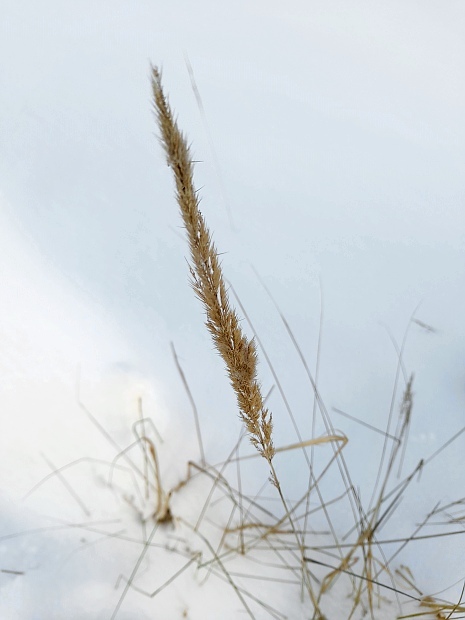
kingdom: Plantae
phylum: Tracheophyta
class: Liliopsida
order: Poales
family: Poaceae
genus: Calamagrostis
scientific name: Calamagrostis epigejos
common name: Wood small-reed
